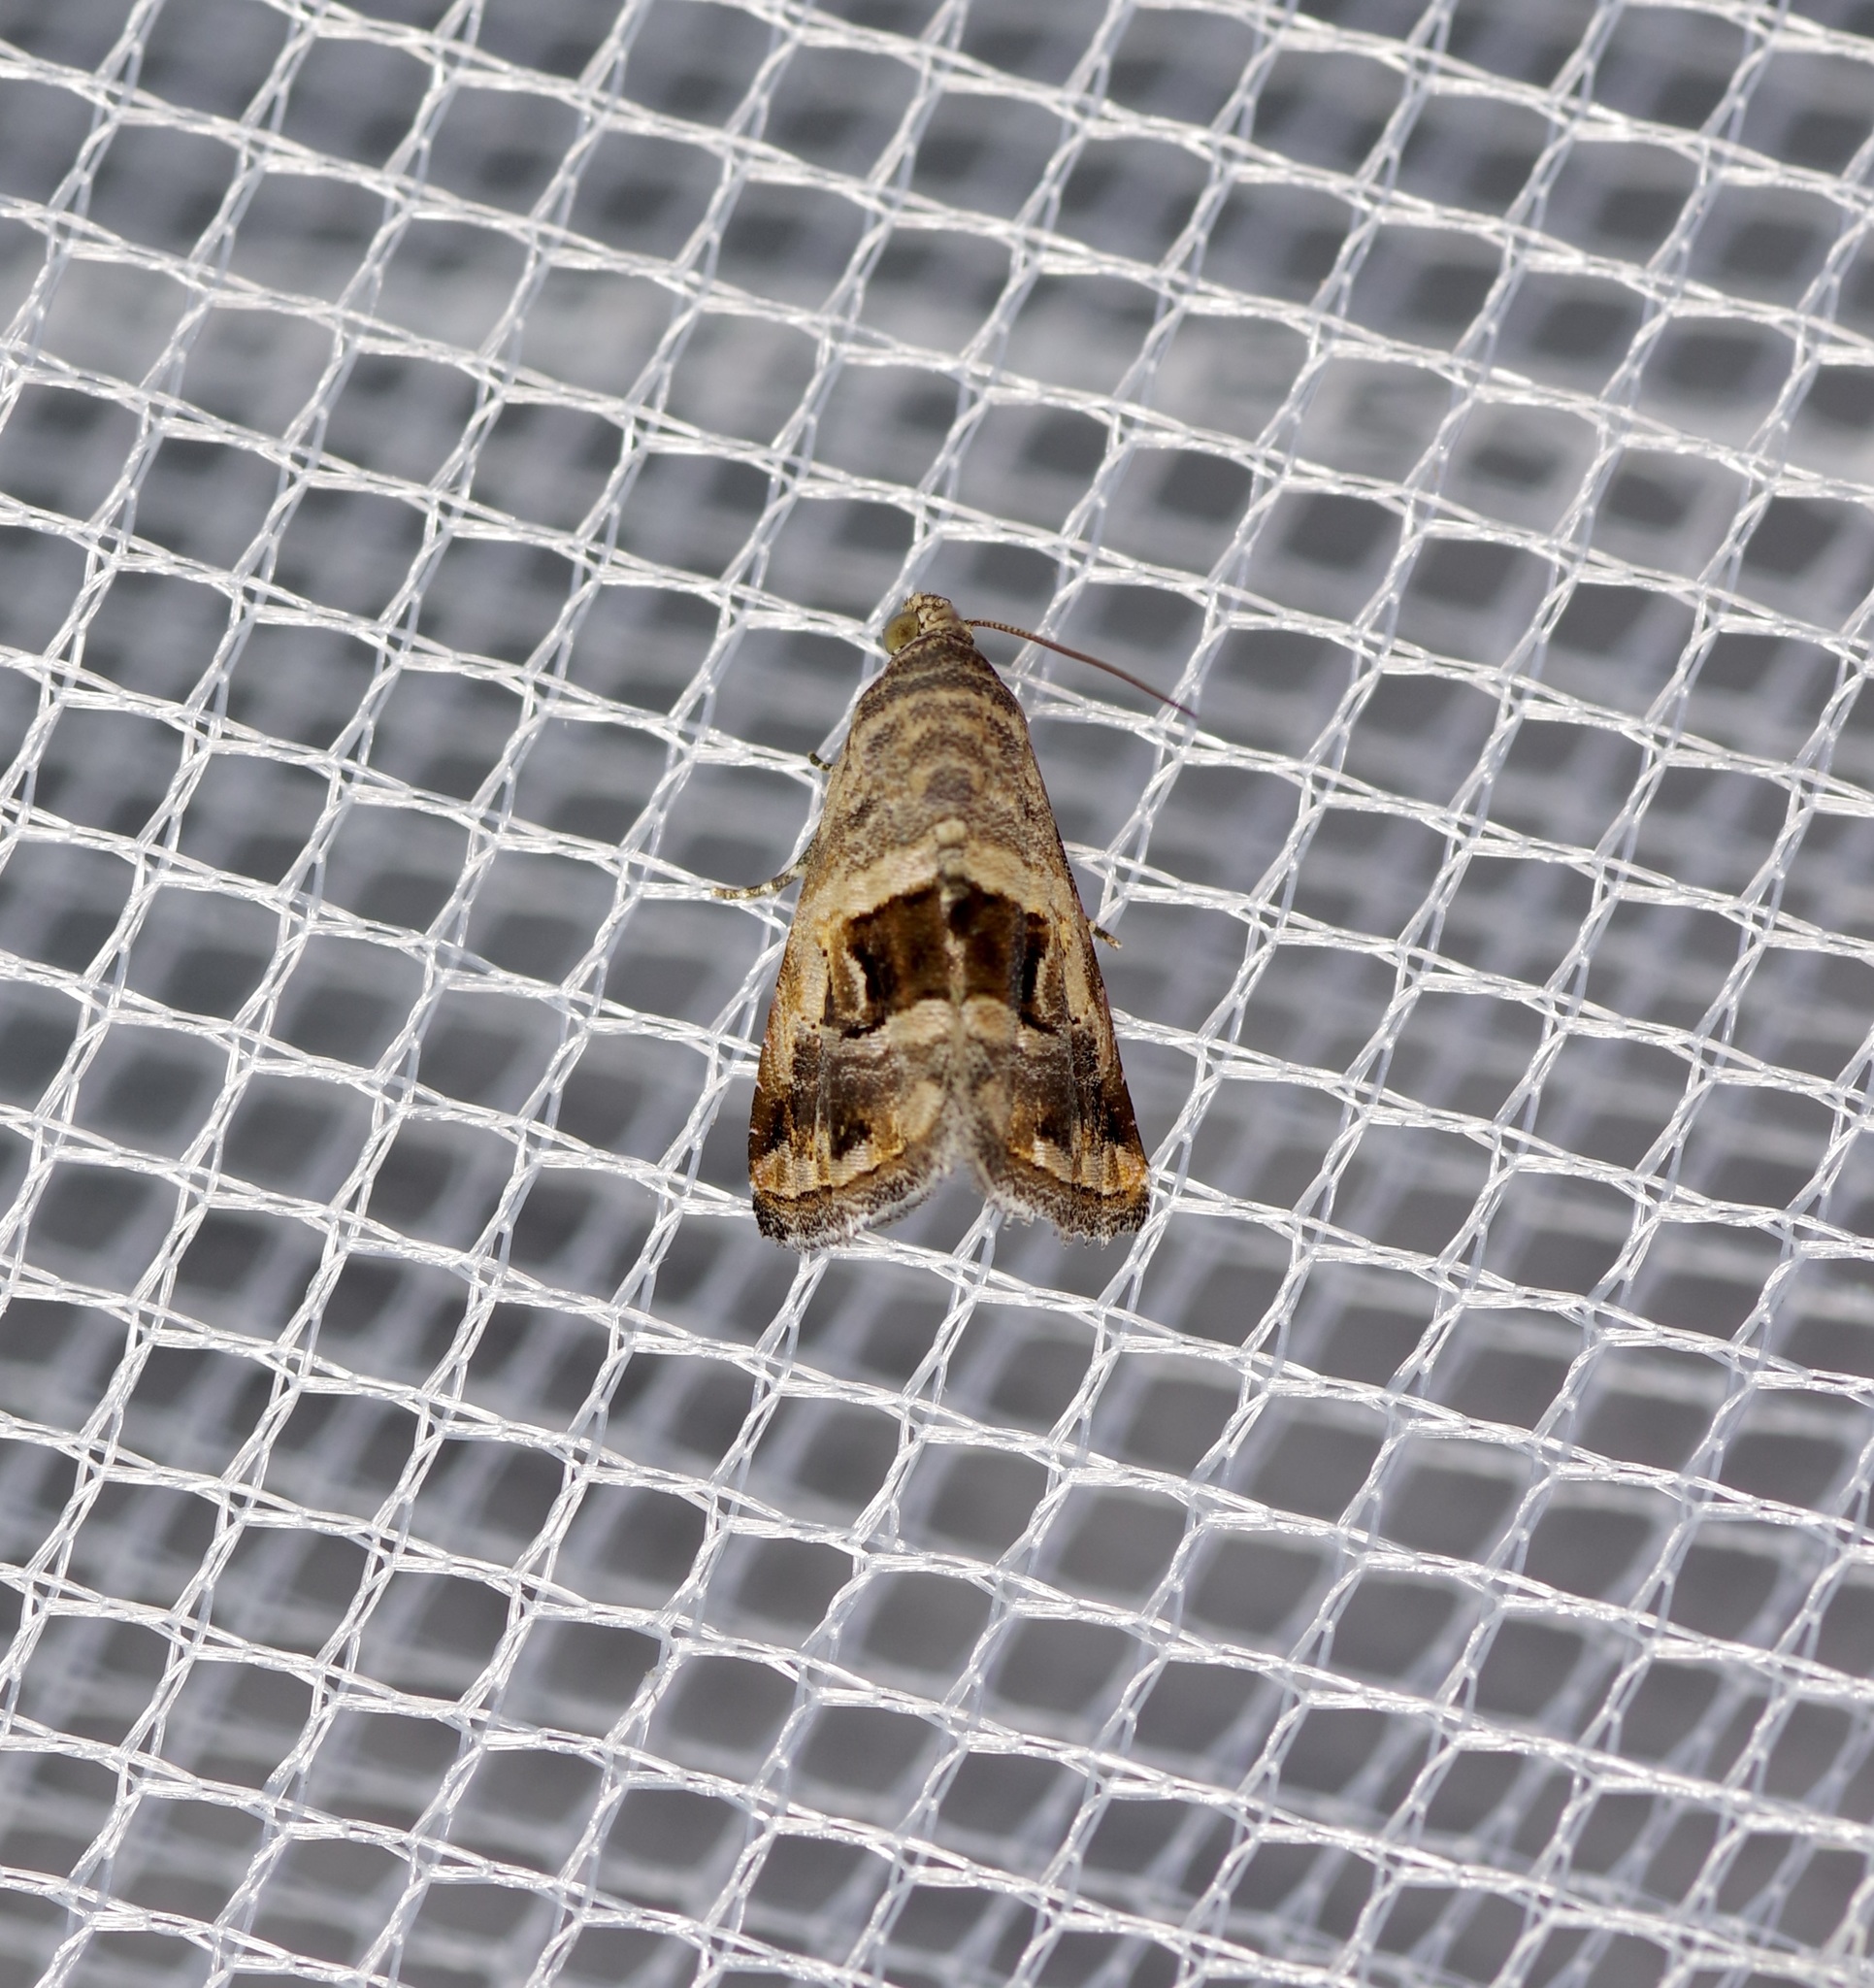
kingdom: Animalia
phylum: Arthropoda
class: Insecta
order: Lepidoptera
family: Noctuidae
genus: Tripudia
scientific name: Tripudia quadrifera
